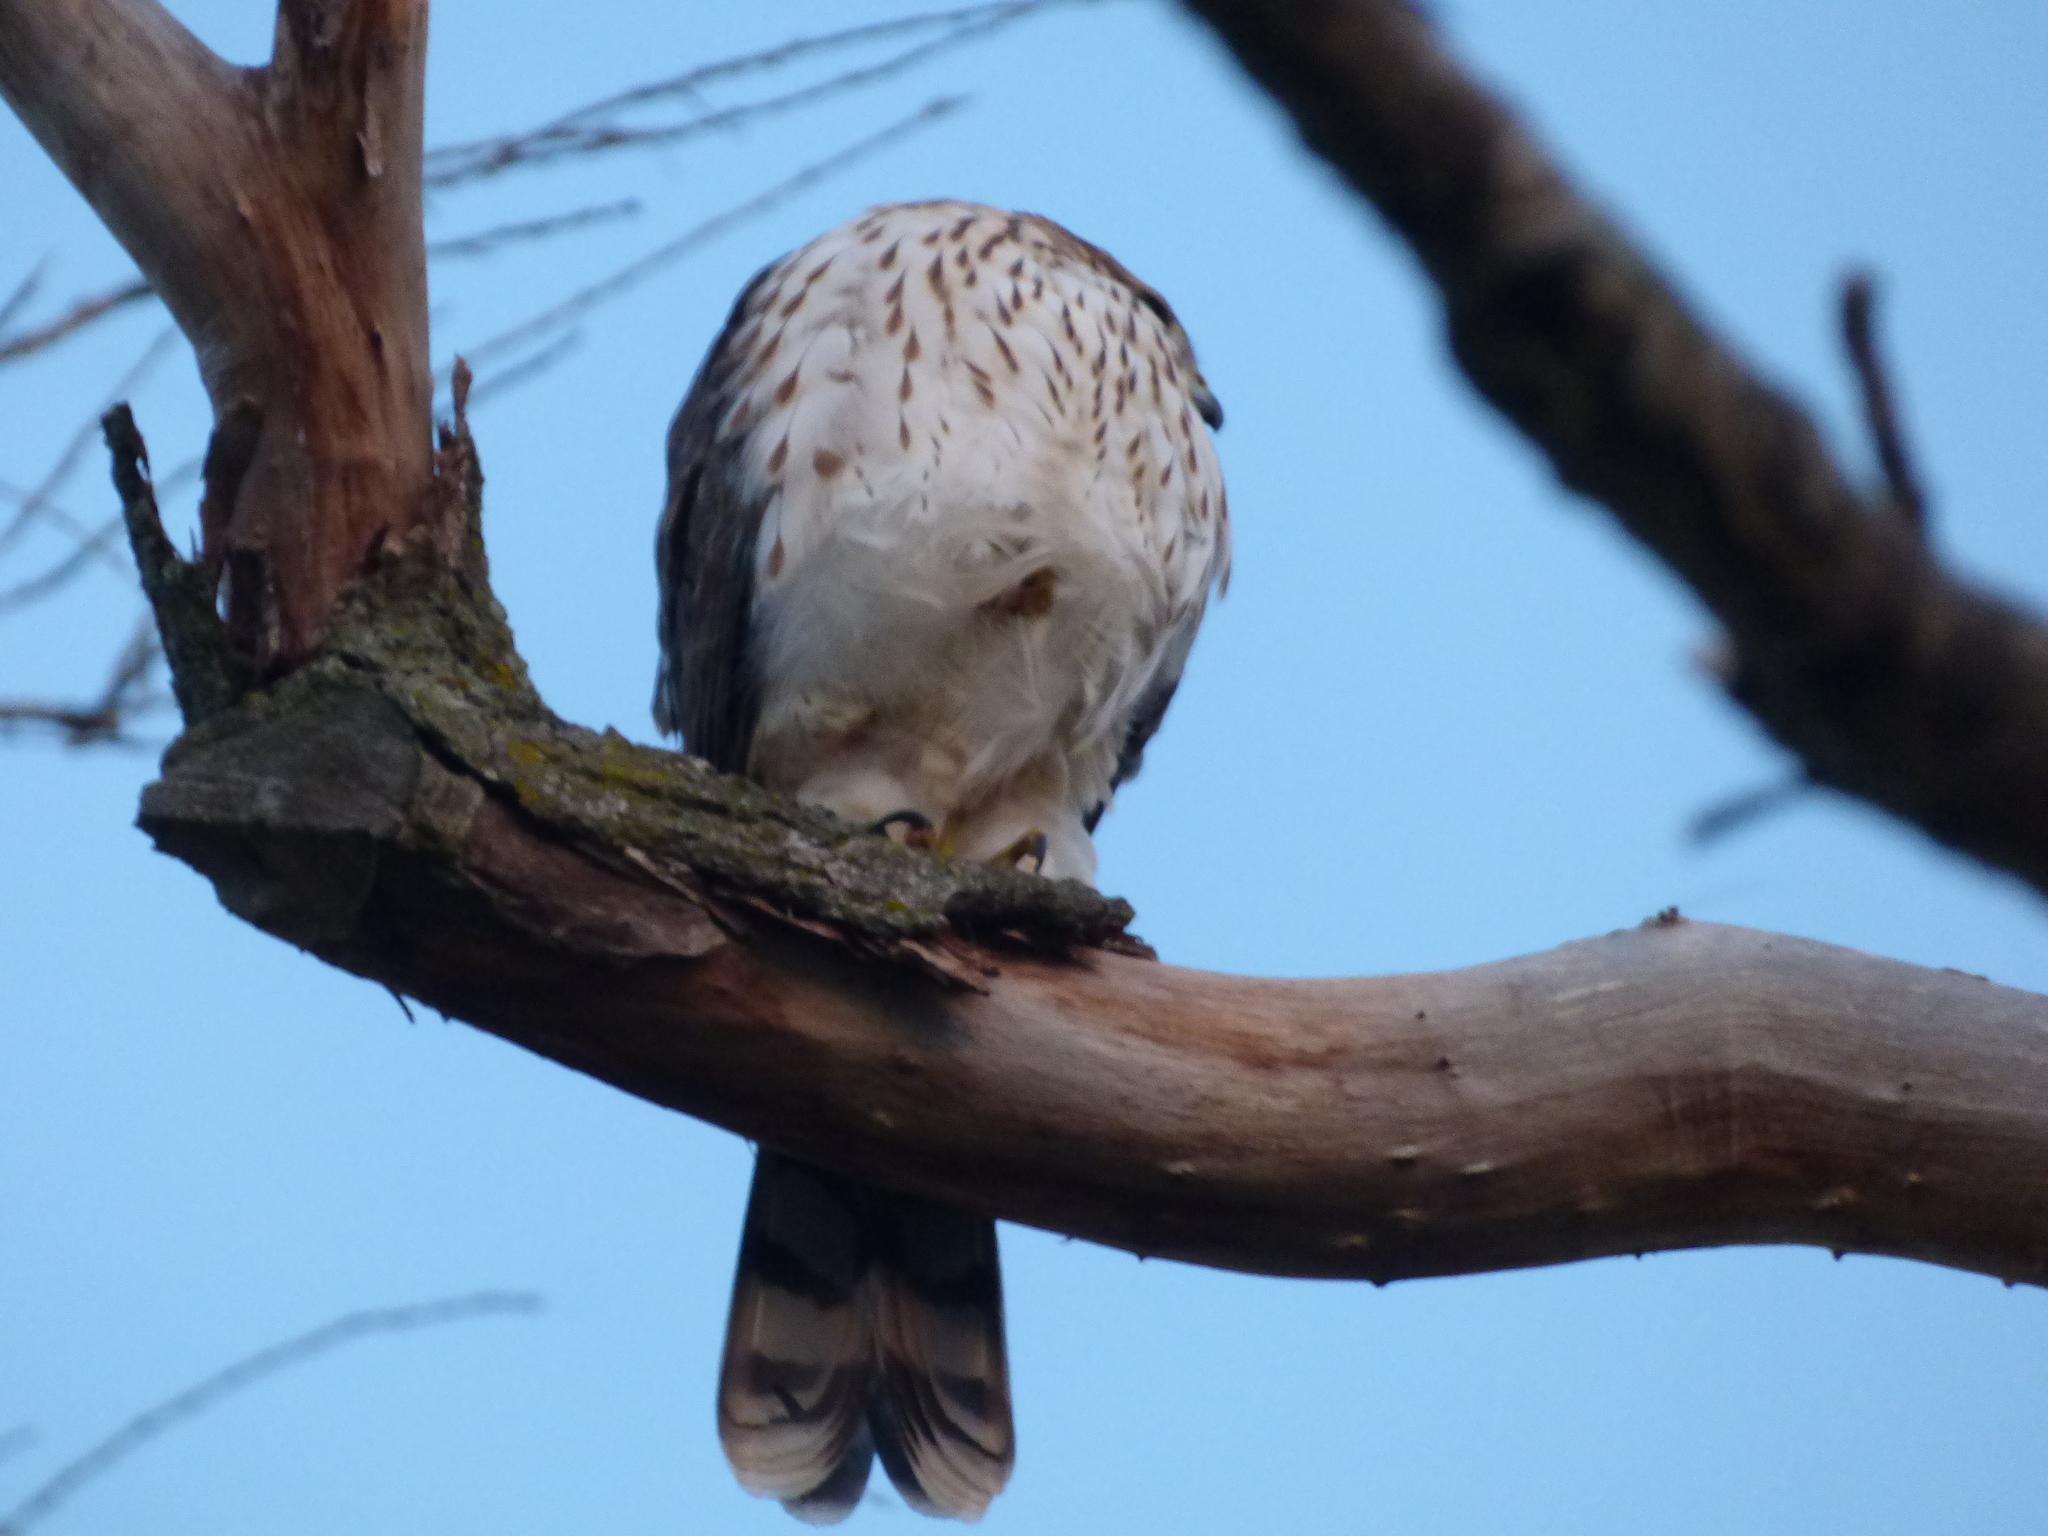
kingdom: Animalia
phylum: Chordata
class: Aves
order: Accipitriformes
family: Accipitridae
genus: Accipiter
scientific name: Accipiter cooperii
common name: Cooper's hawk
